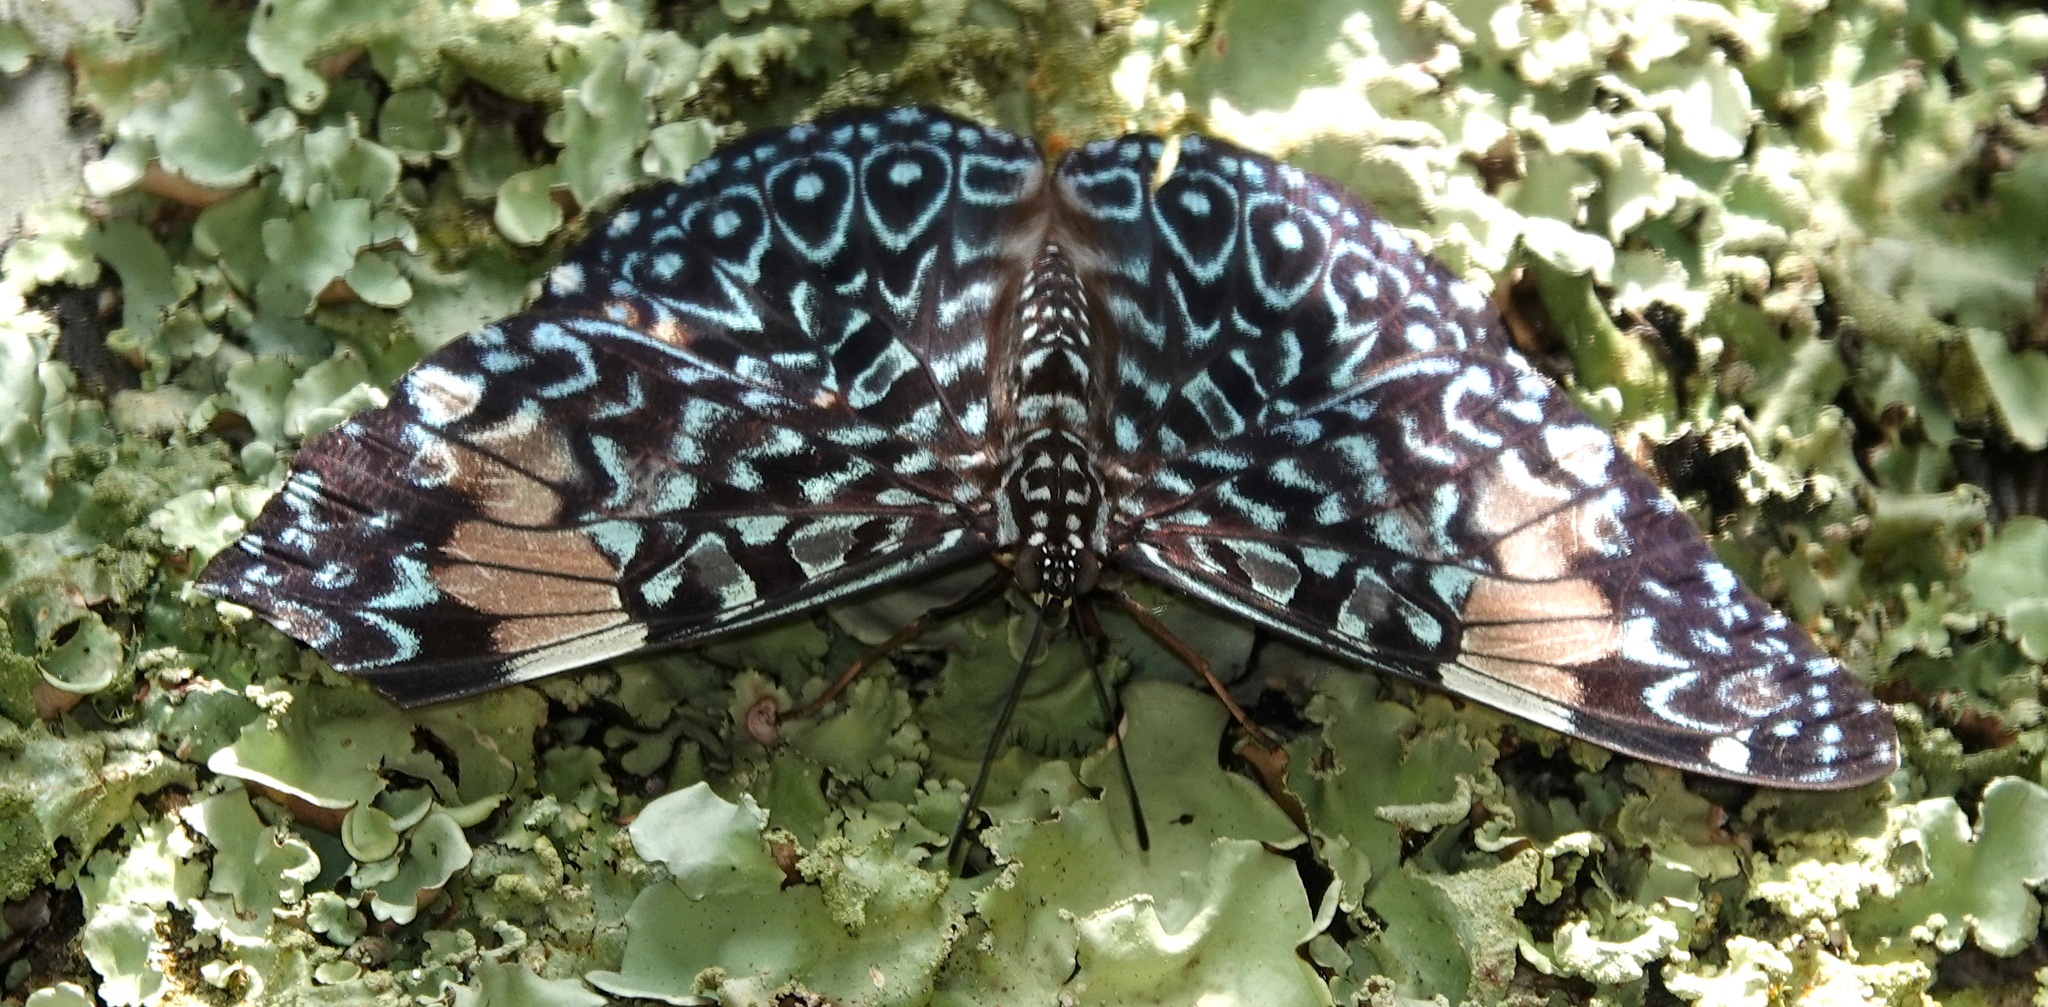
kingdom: Animalia
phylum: Arthropoda
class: Insecta
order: Lepidoptera
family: Nymphalidae
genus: Hamadryas
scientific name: Hamadryas amphinome
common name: Red cracker
